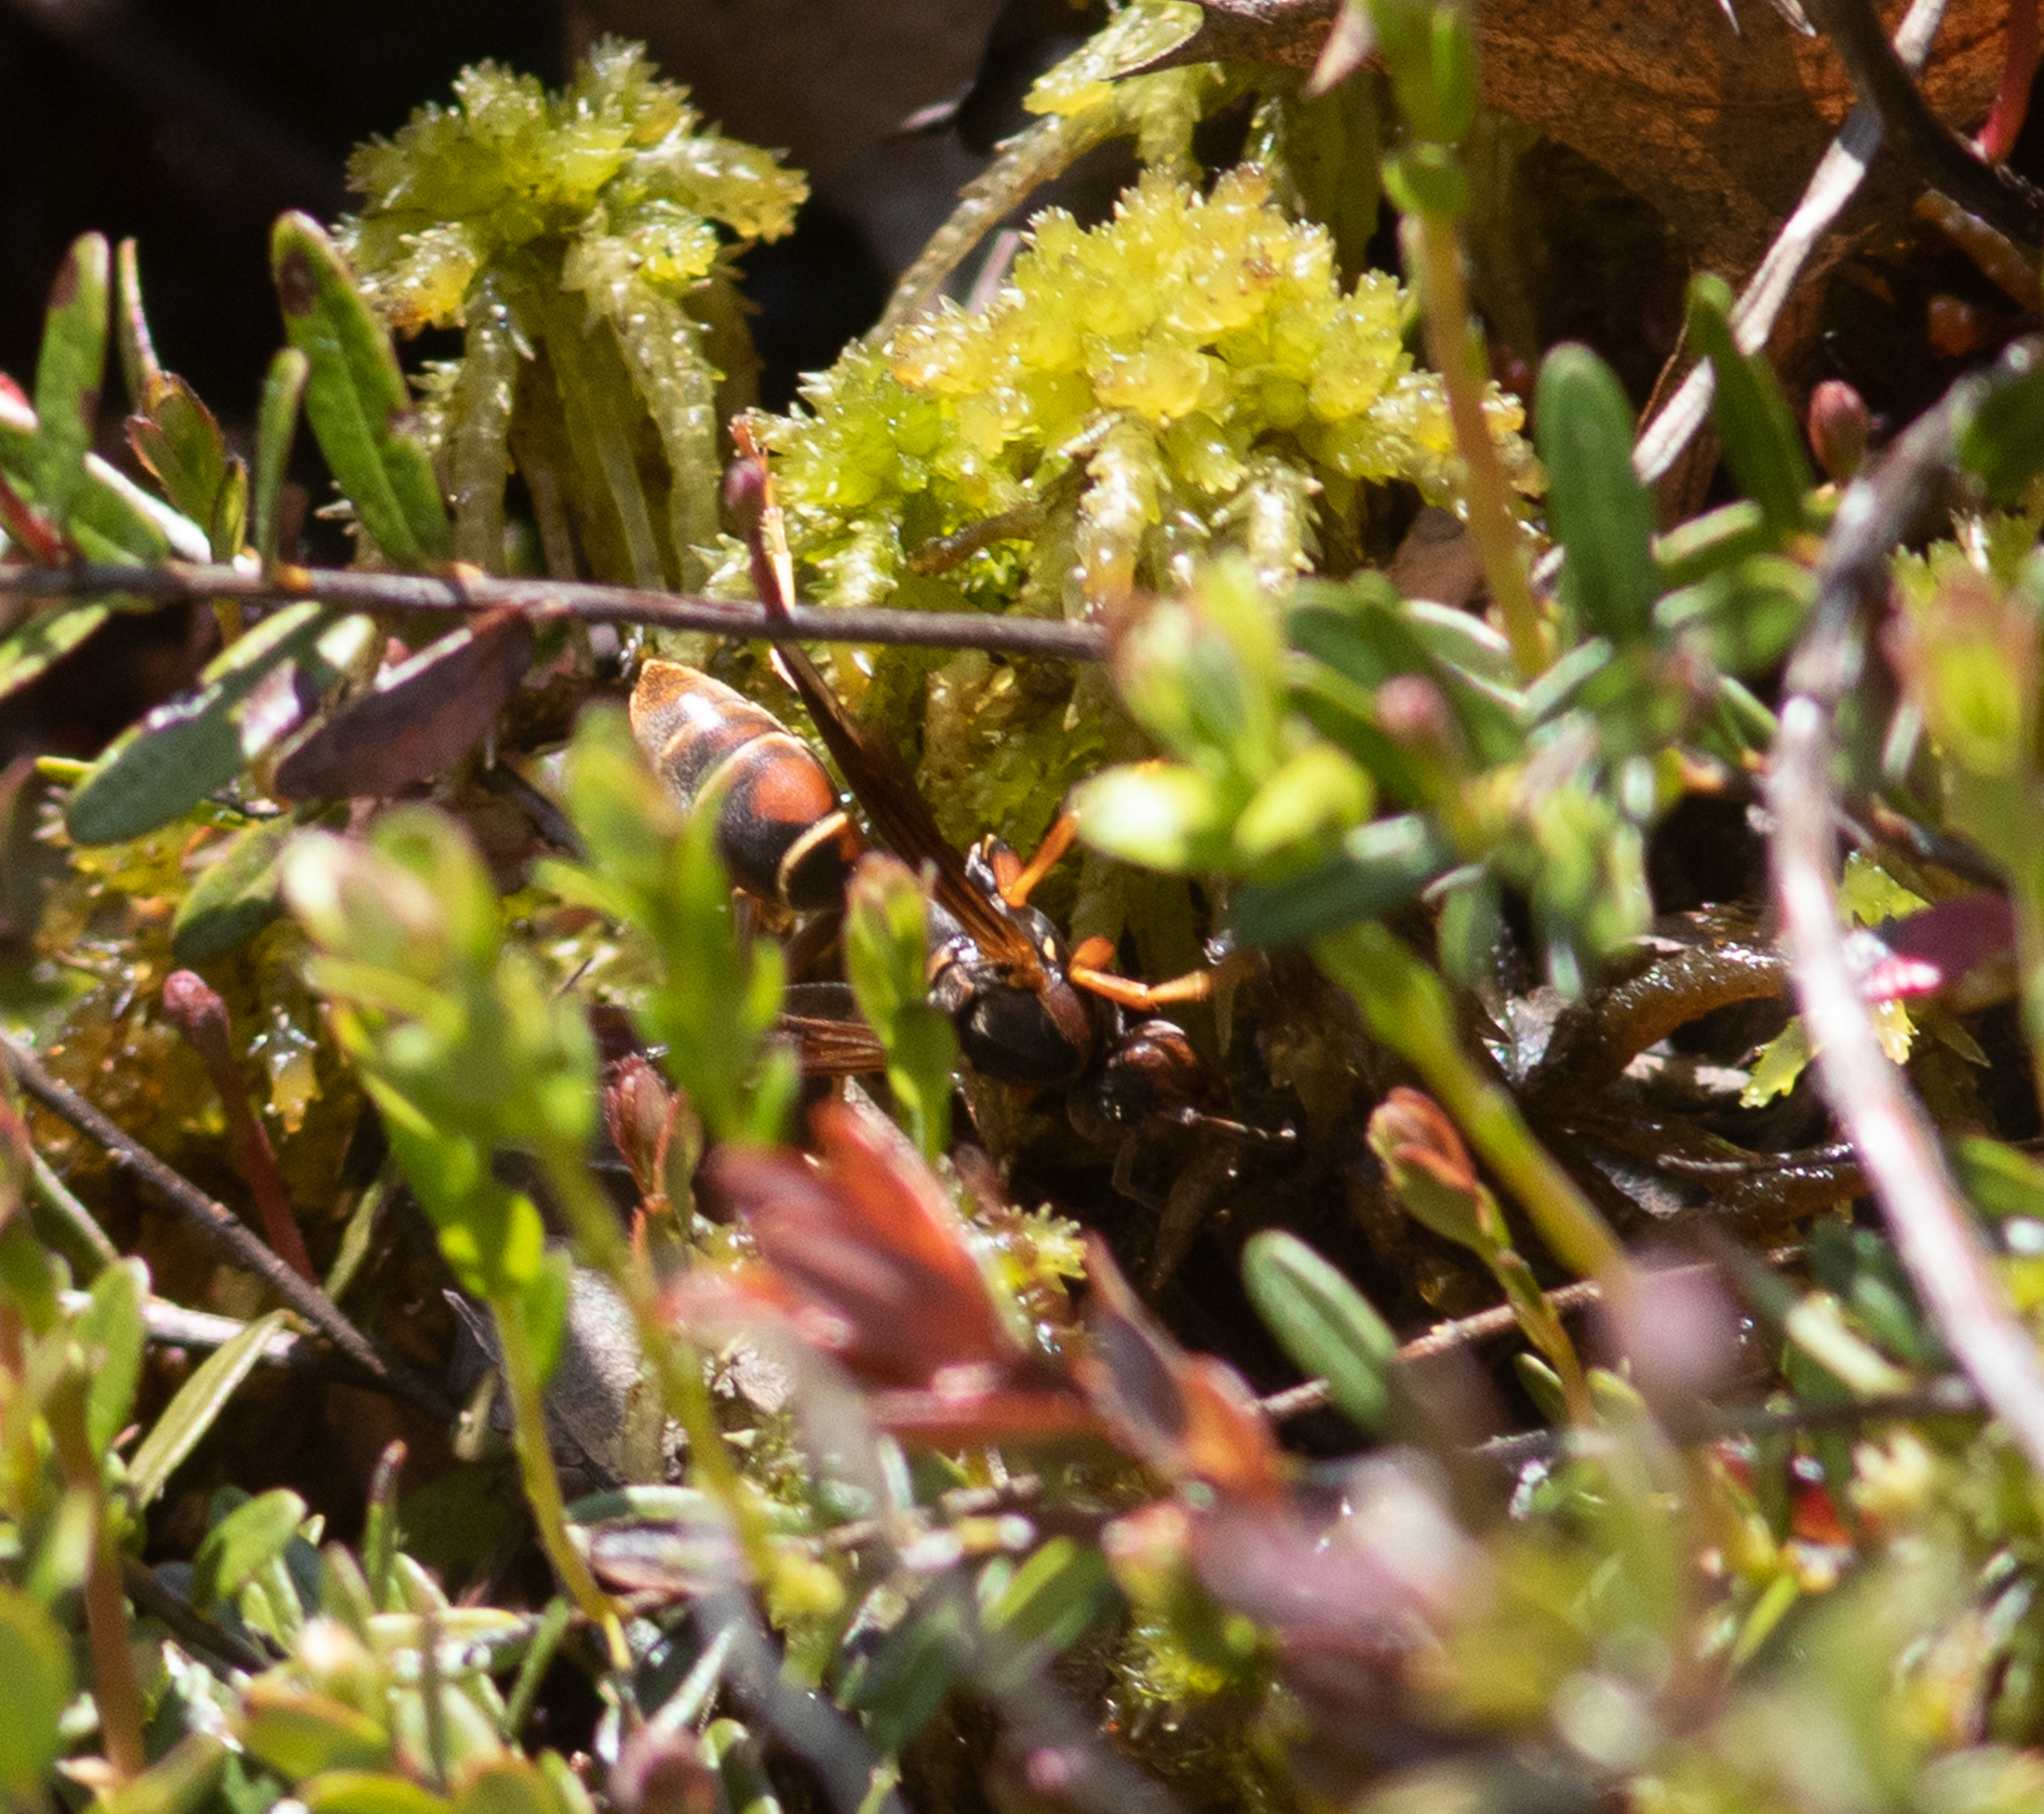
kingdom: Animalia
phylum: Arthropoda
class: Insecta
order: Hymenoptera
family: Eumenidae
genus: Polistes
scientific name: Polistes fuscatus
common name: Dark paper wasp
